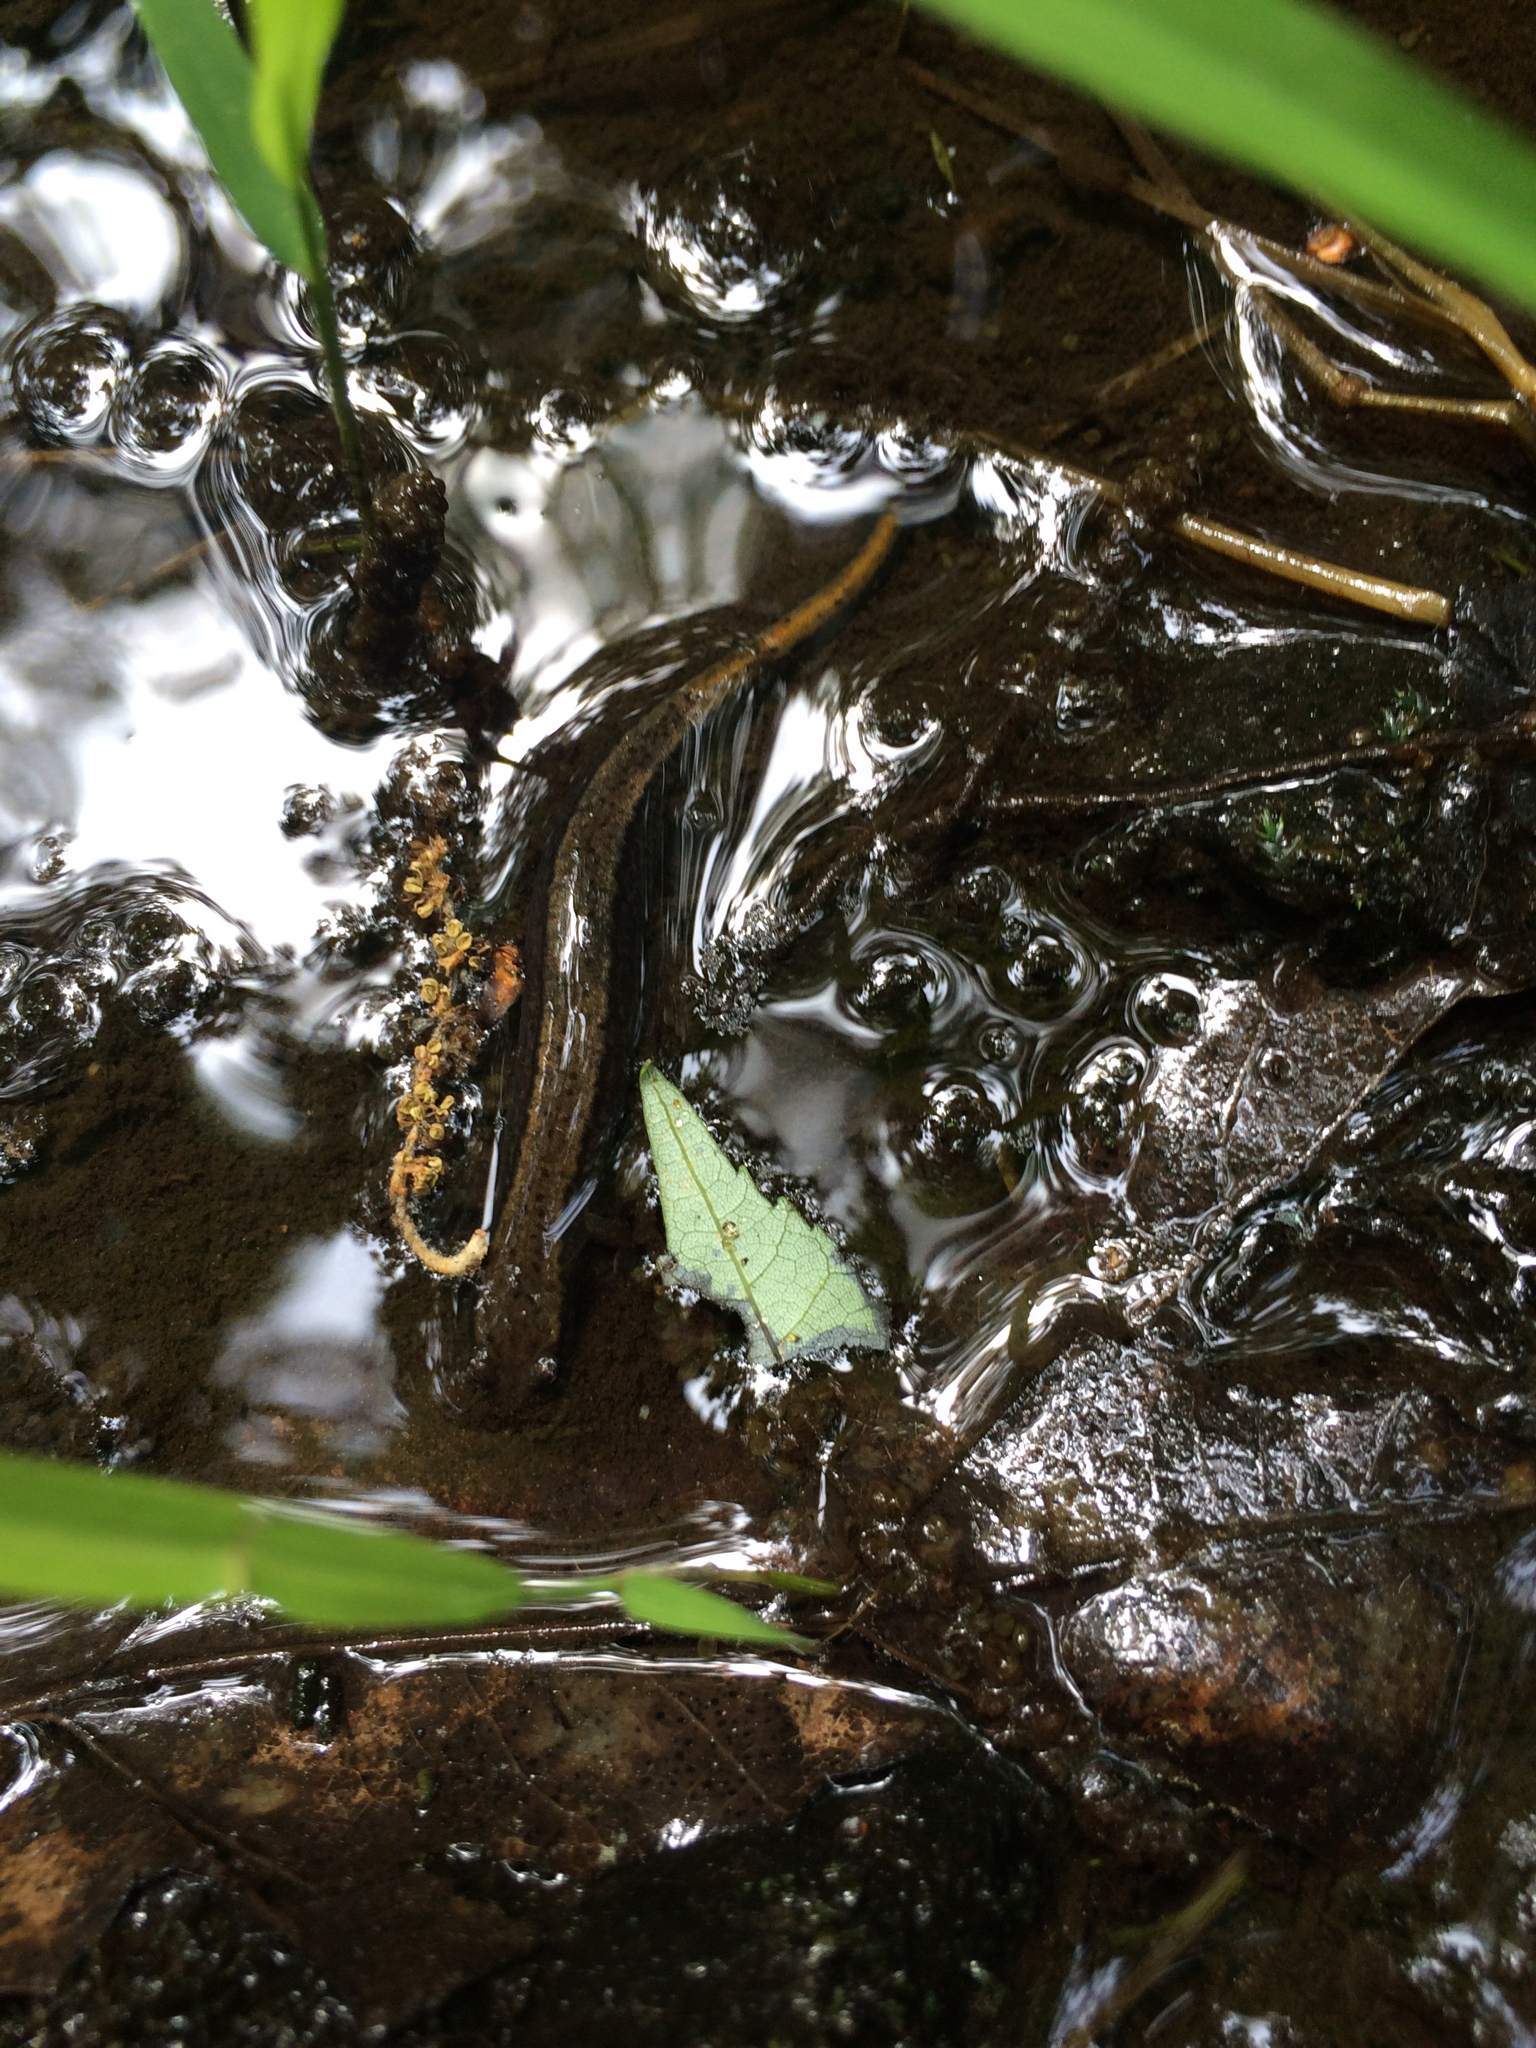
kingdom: Animalia
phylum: Chordata
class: Amphibia
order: Caudata
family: Plethodontidae
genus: Eurycea
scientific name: Eurycea bislineata
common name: Northern two-lined salamander
